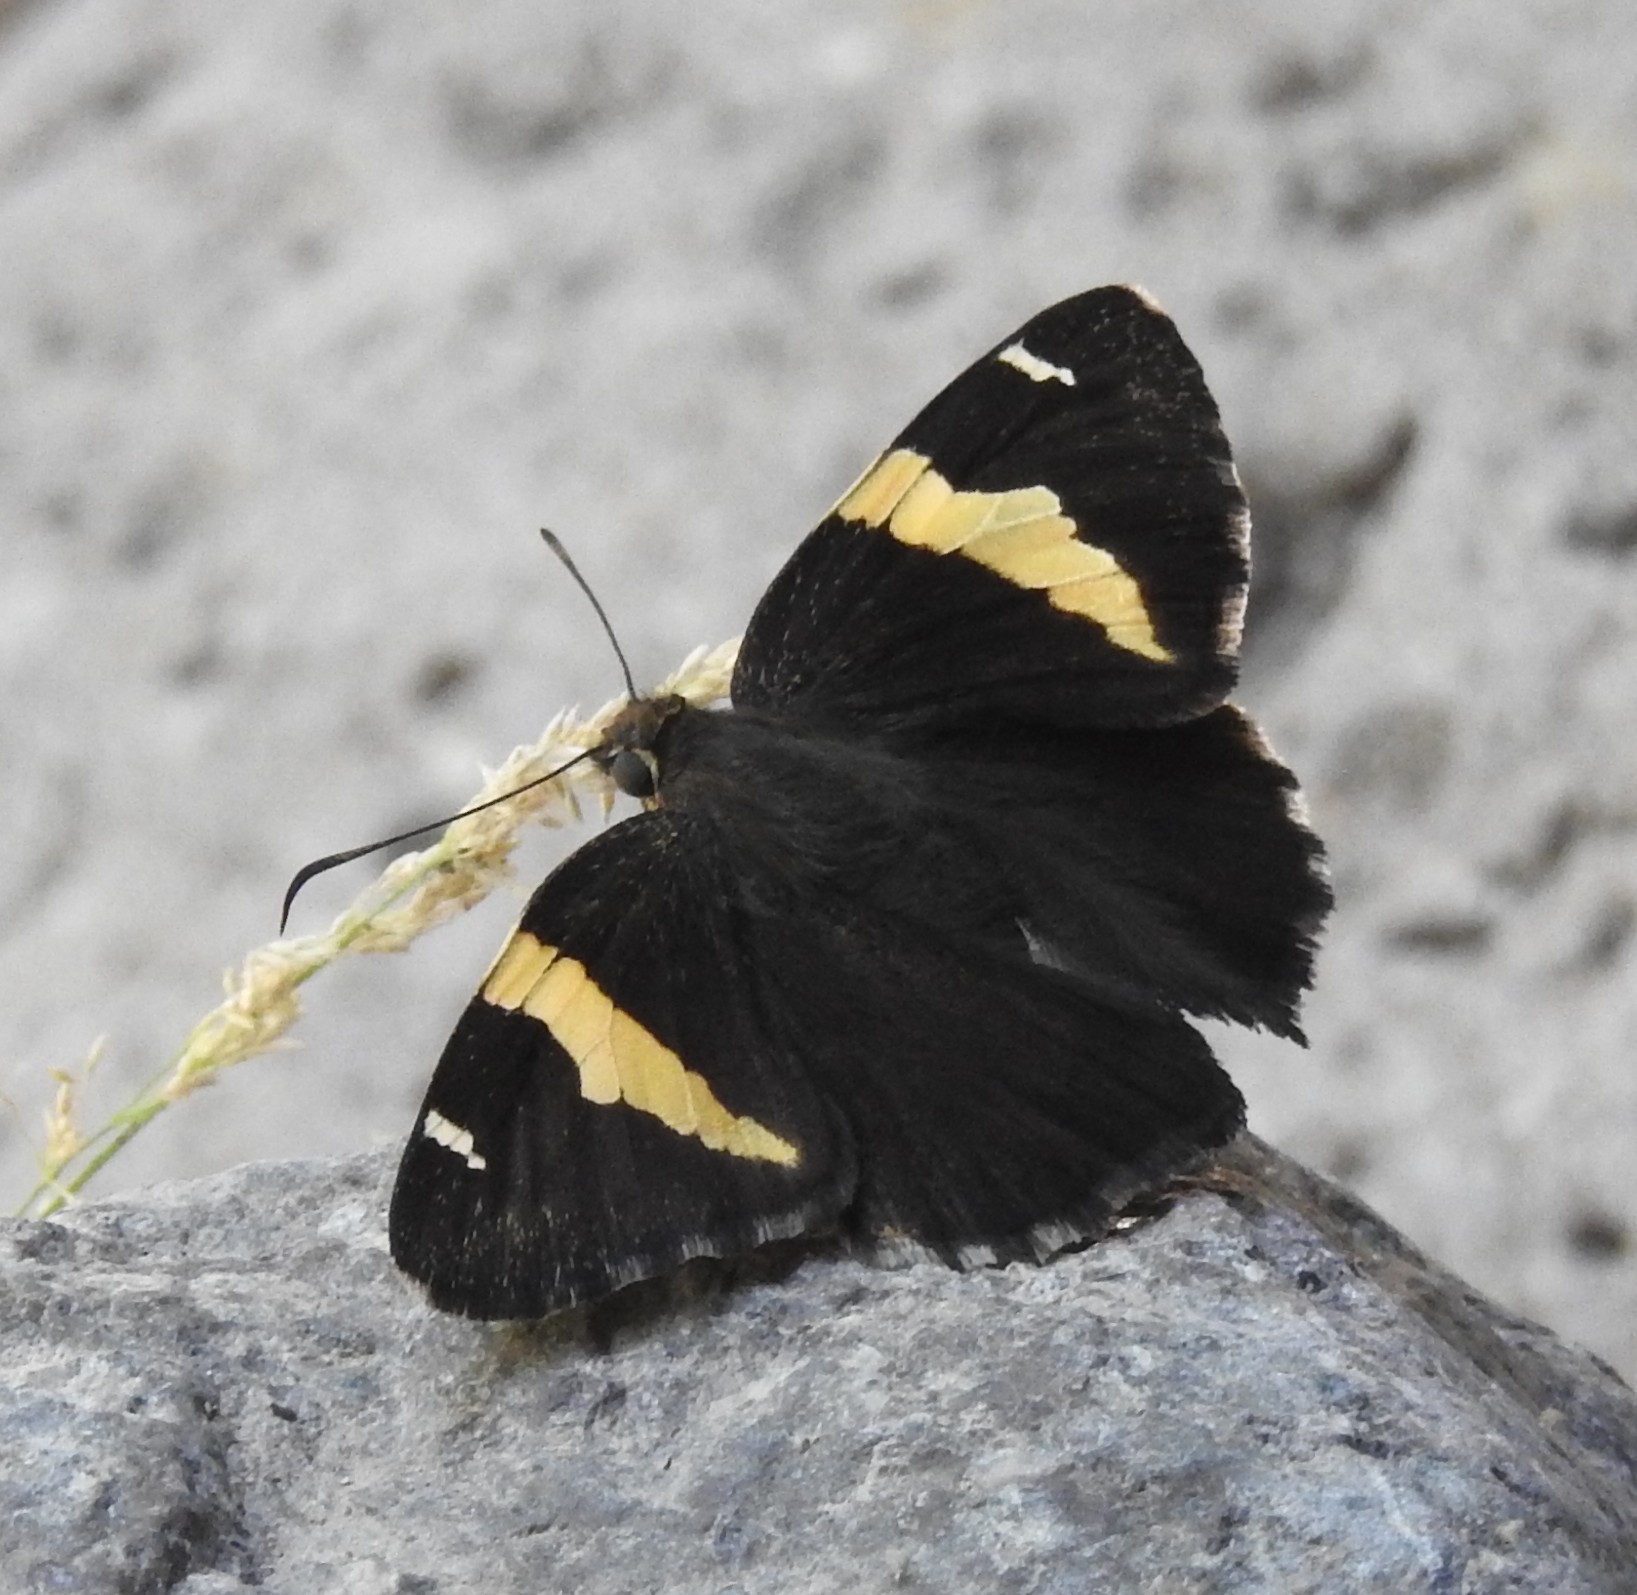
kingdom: Animalia
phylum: Arthropoda
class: Arachnida
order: Scorpiones
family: Bothriuridae
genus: Telegonus
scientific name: Telegonus cellus
